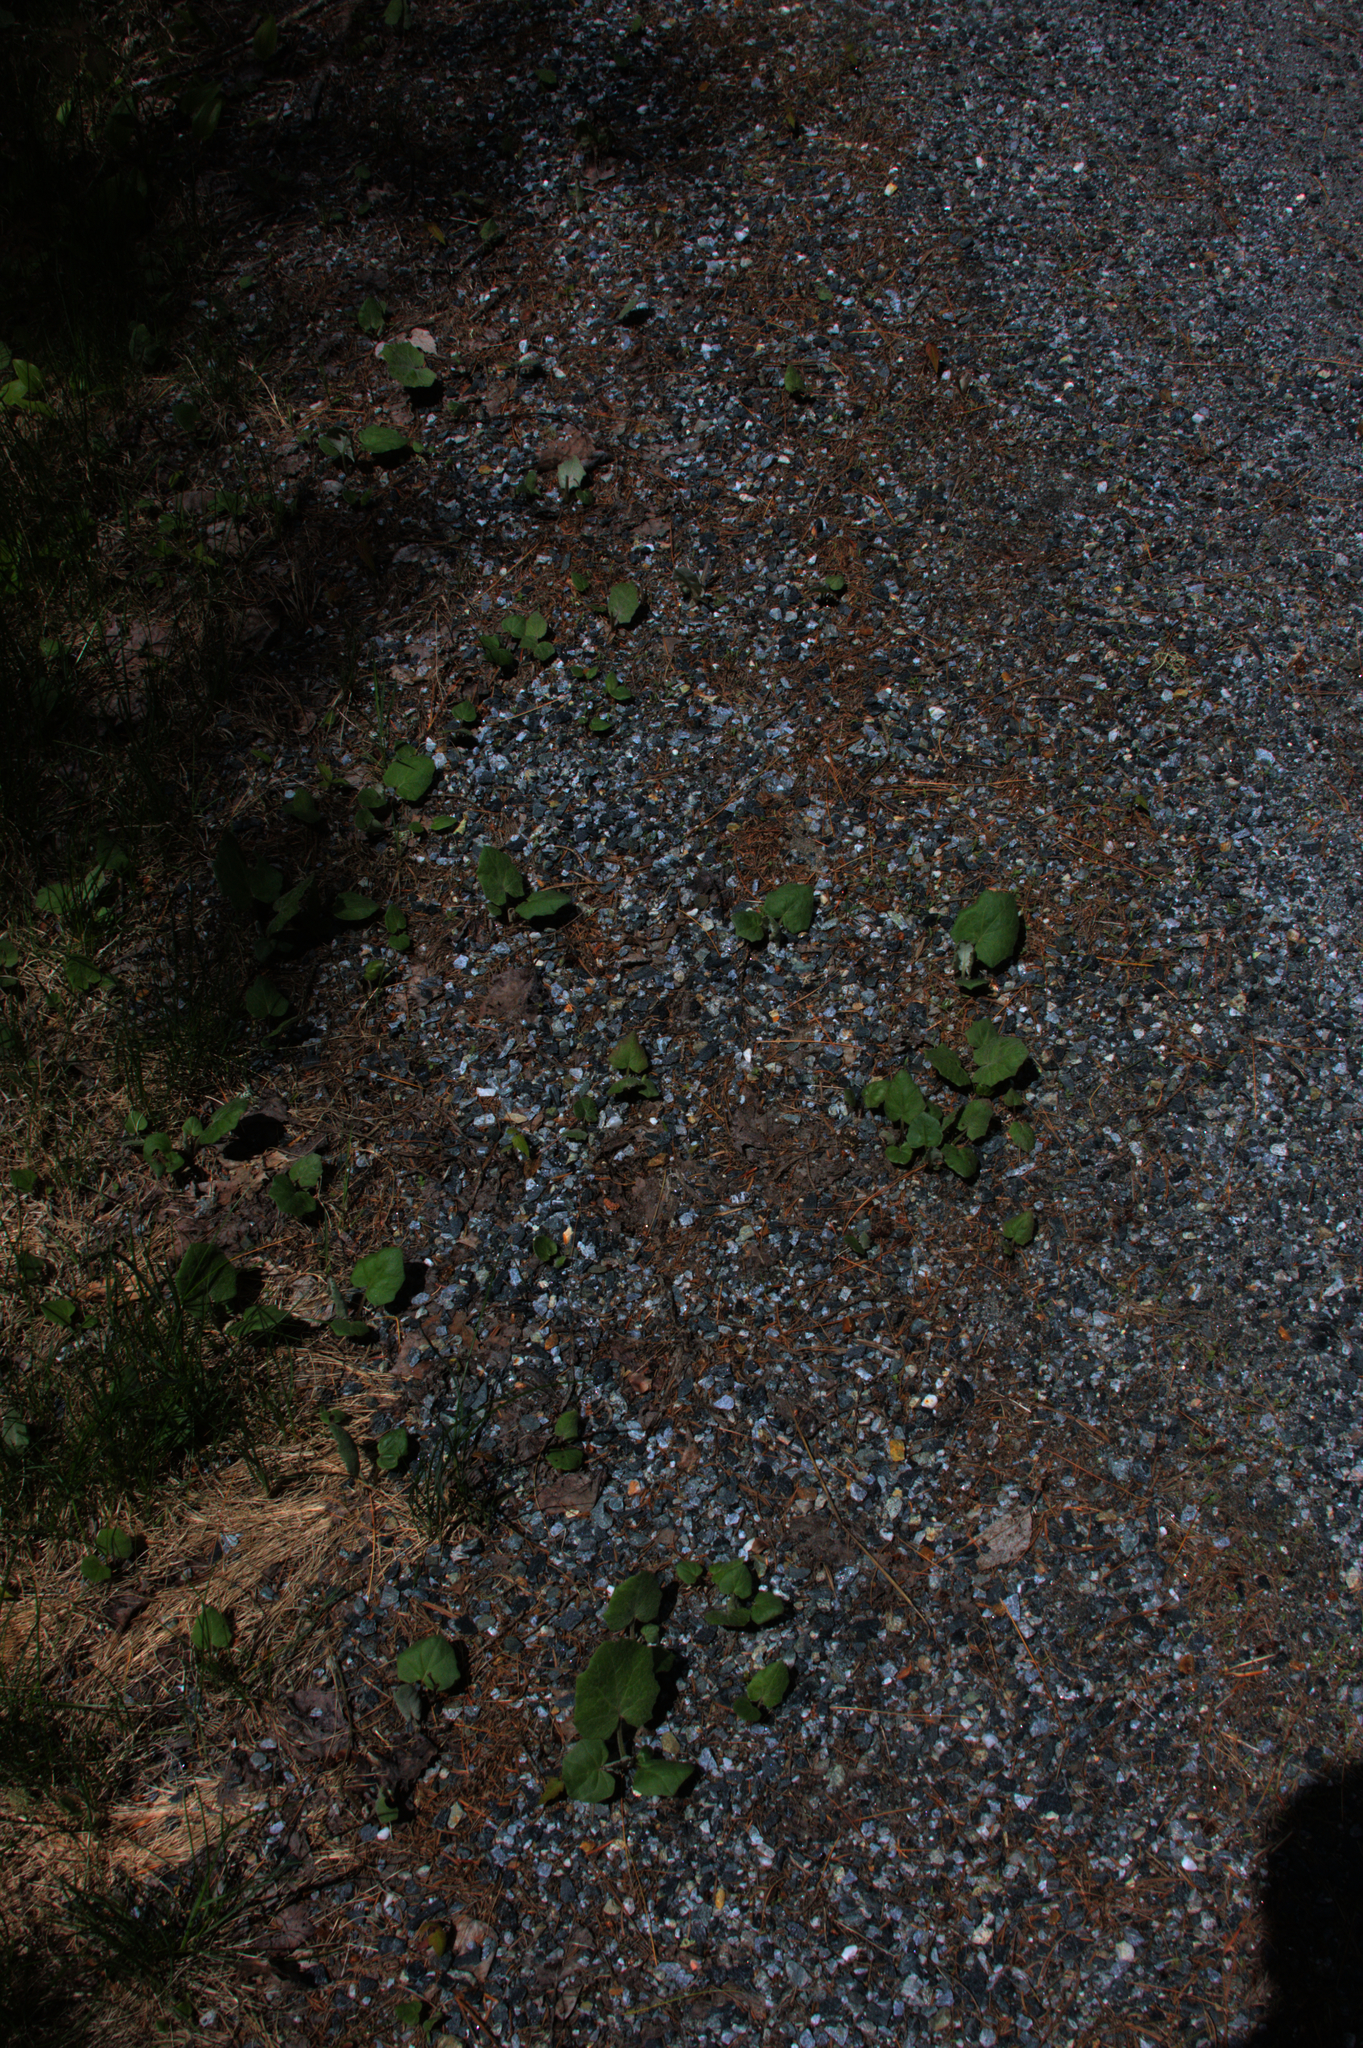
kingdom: Plantae
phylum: Tracheophyta
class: Magnoliopsida
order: Asterales
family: Asteraceae
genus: Tussilago
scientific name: Tussilago farfara
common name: Coltsfoot
